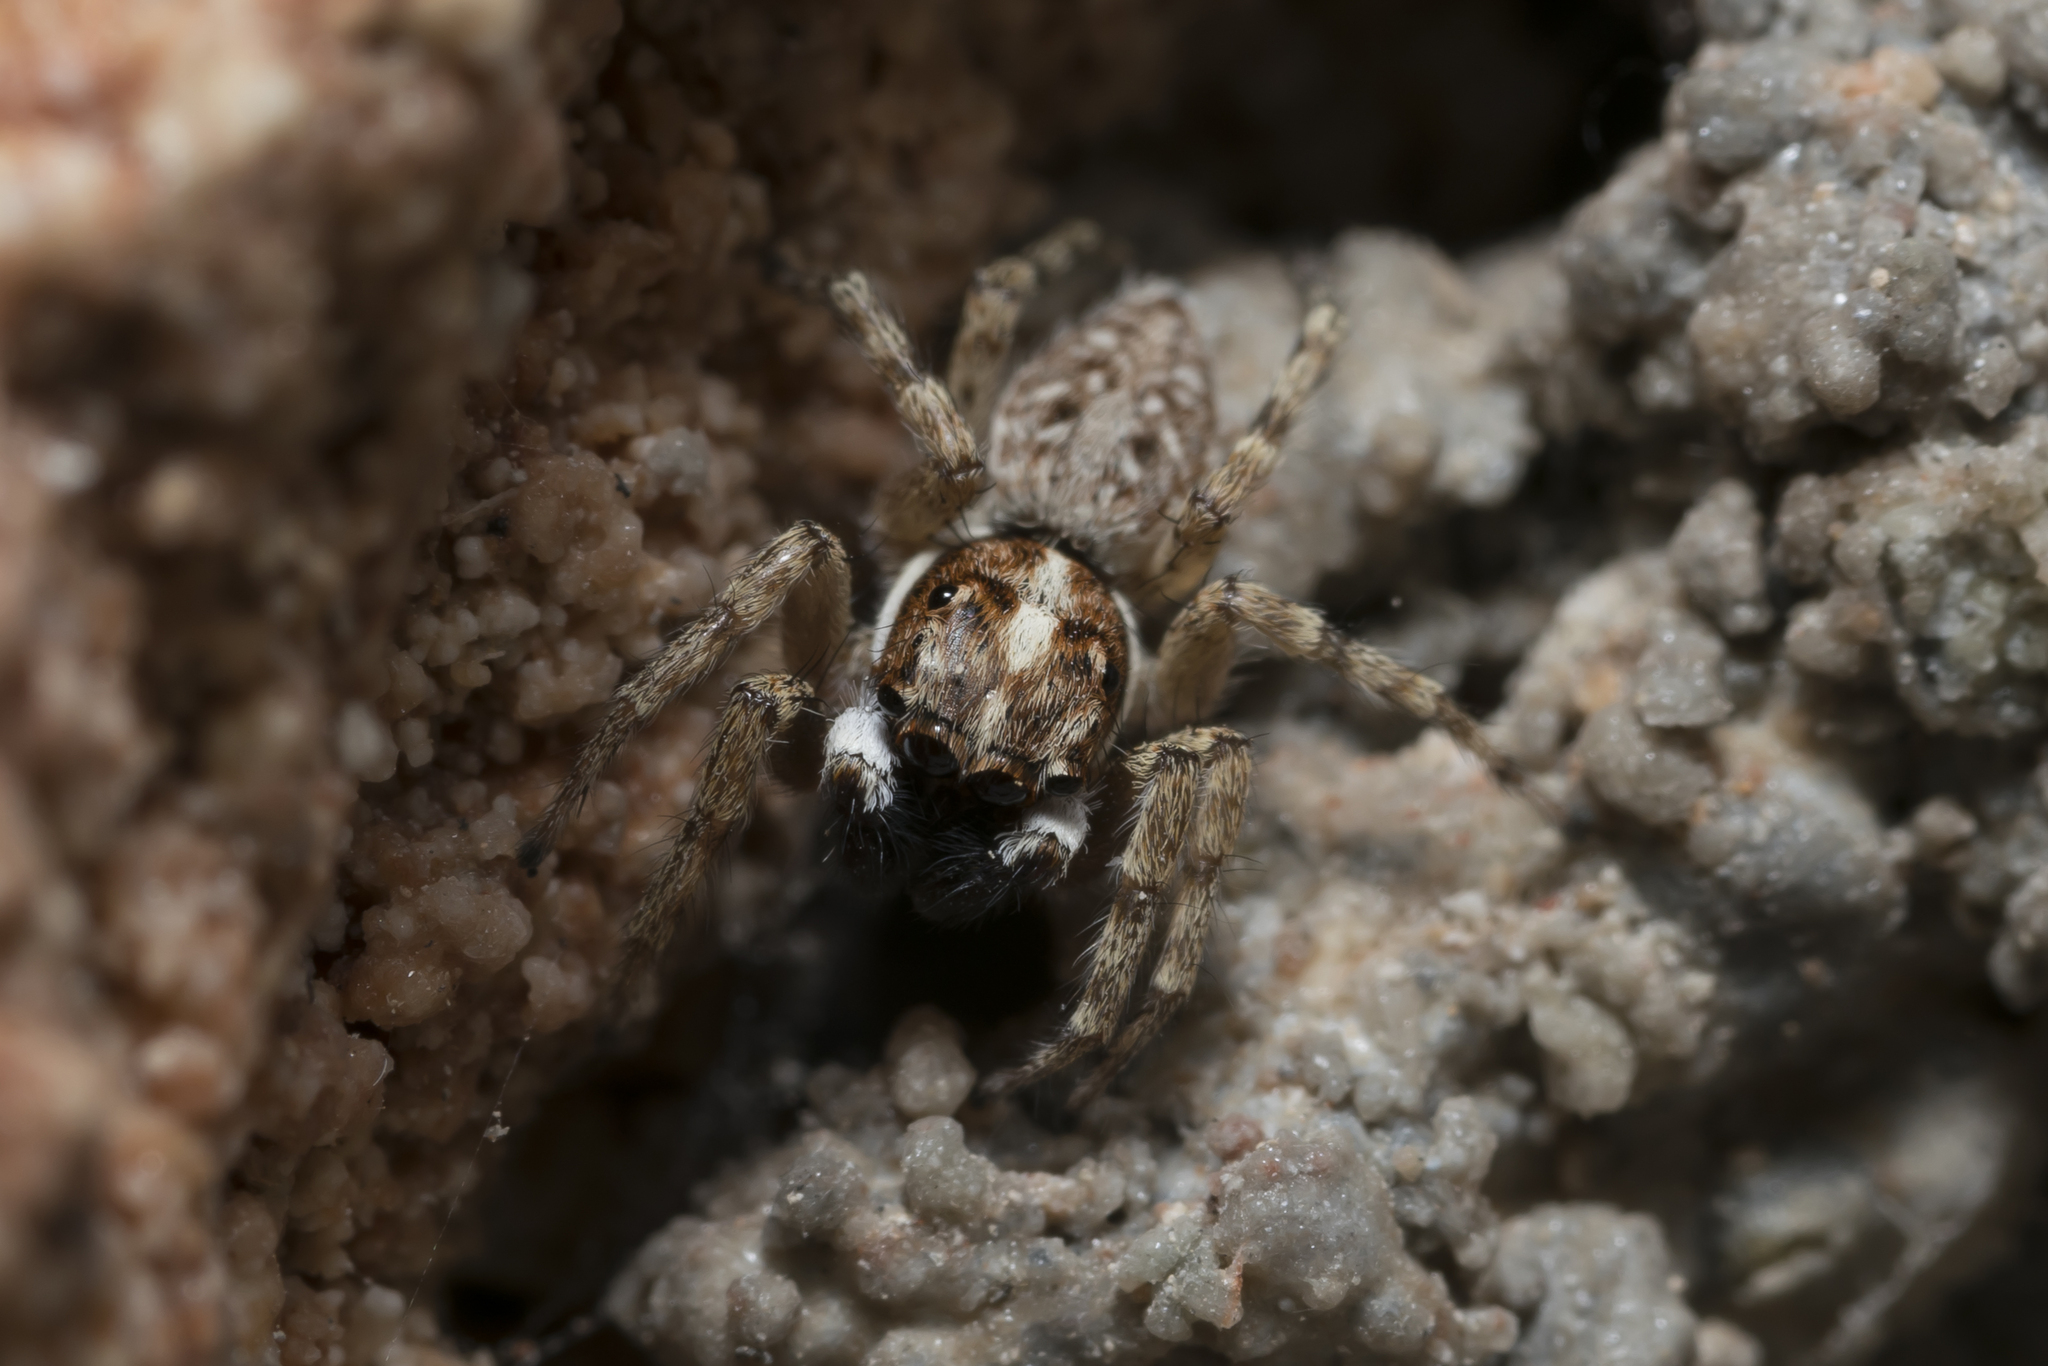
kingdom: Animalia
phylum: Arthropoda
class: Arachnida
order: Araneae
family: Salticidae
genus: Menemerus
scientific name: Menemerus semilimbatus
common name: Jumping spider
